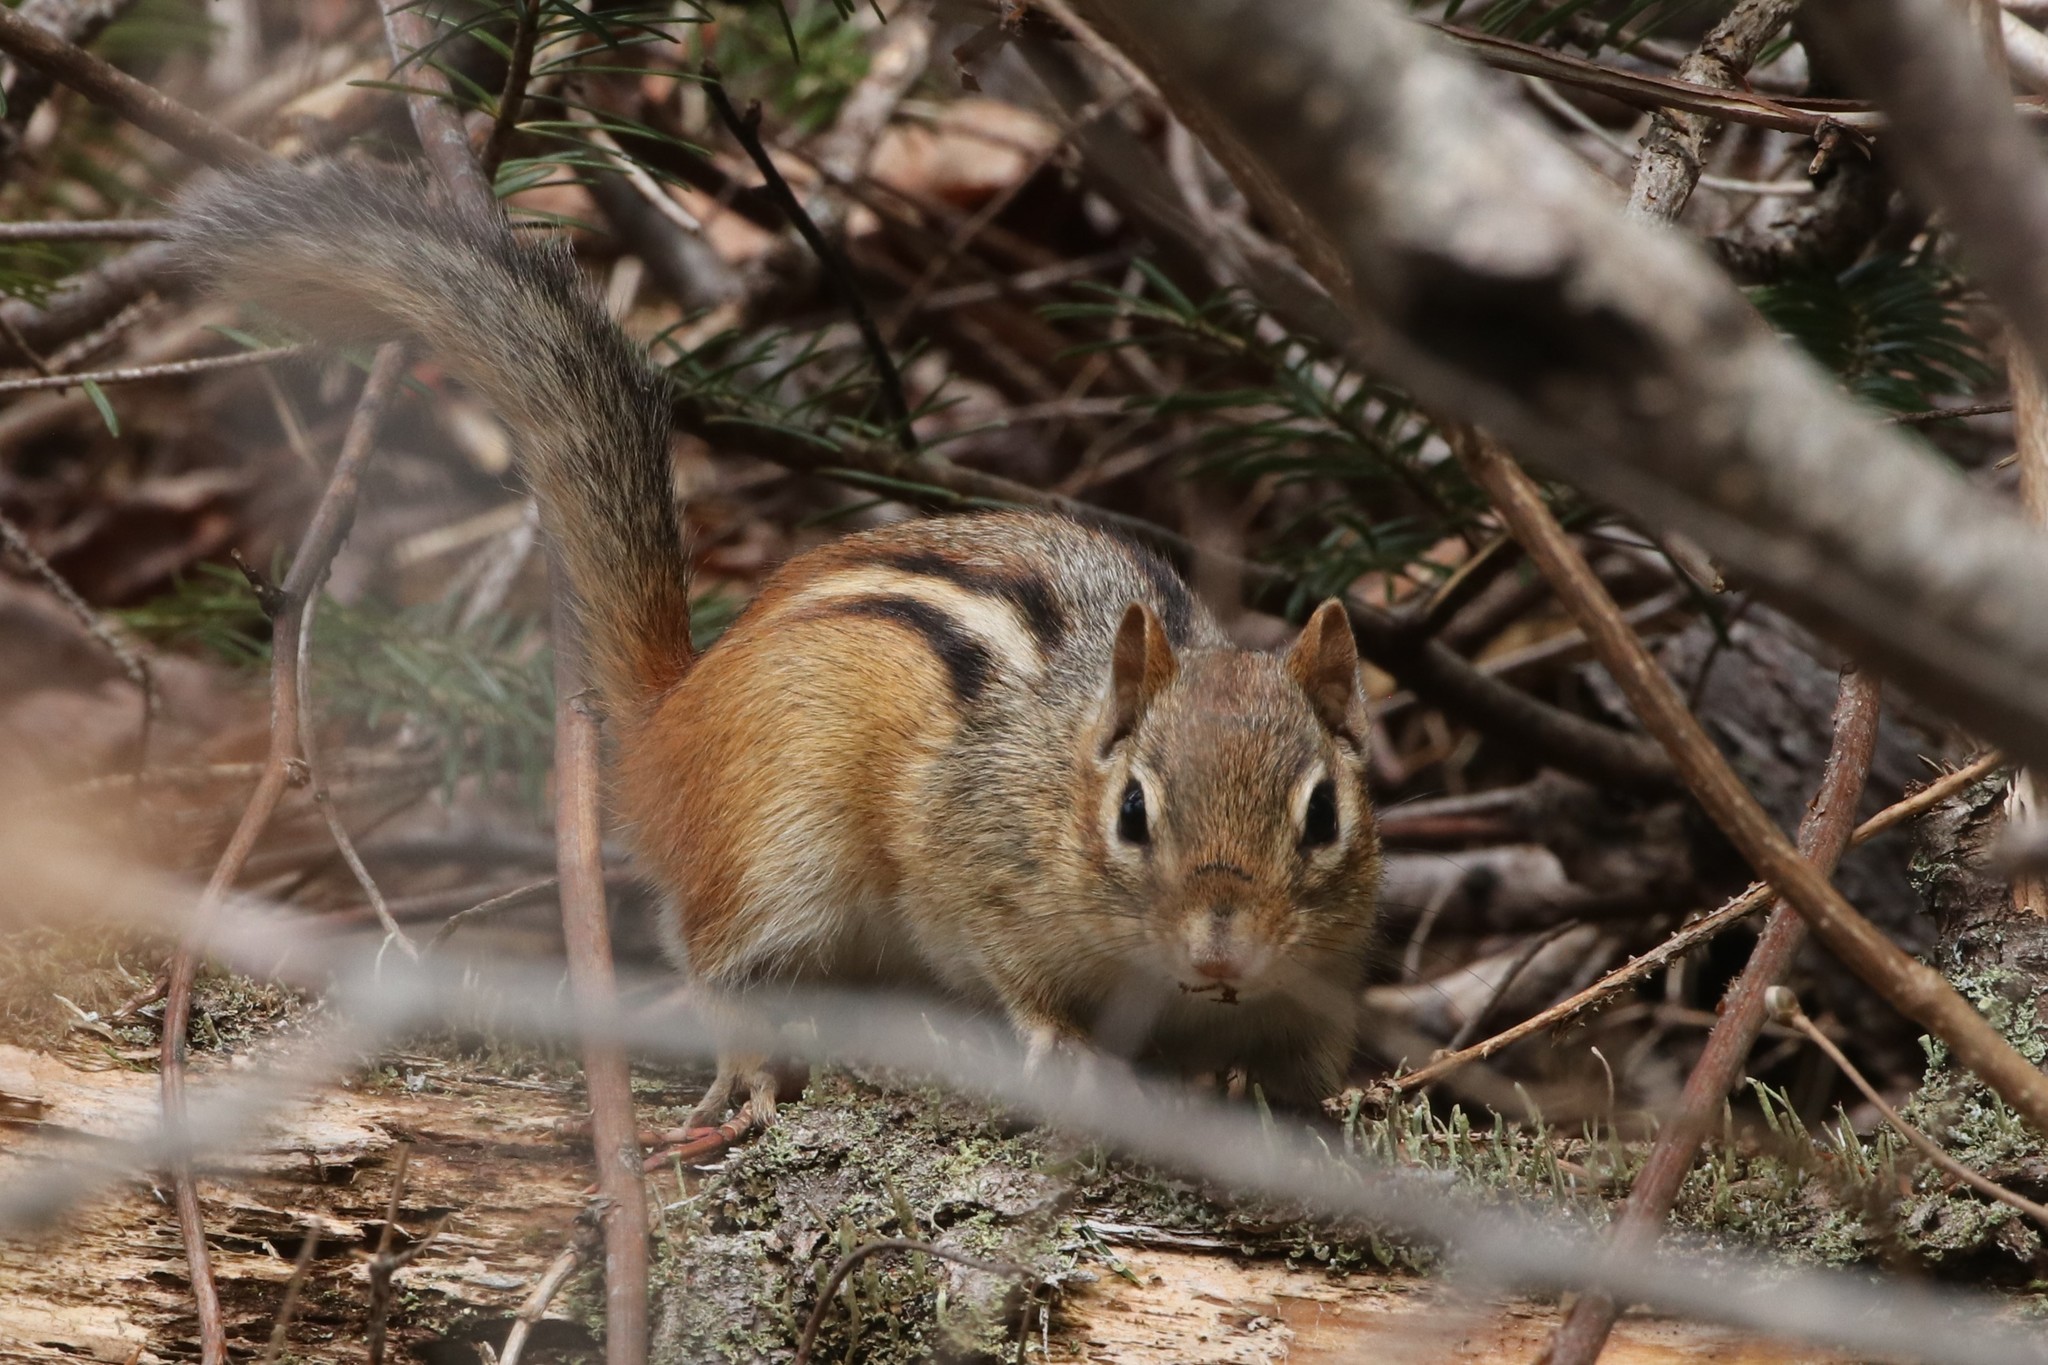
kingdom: Animalia
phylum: Chordata
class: Mammalia
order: Rodentia
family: Sciuridae
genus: Tamias
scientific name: Tamias striatus
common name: Eastern chipmunk
